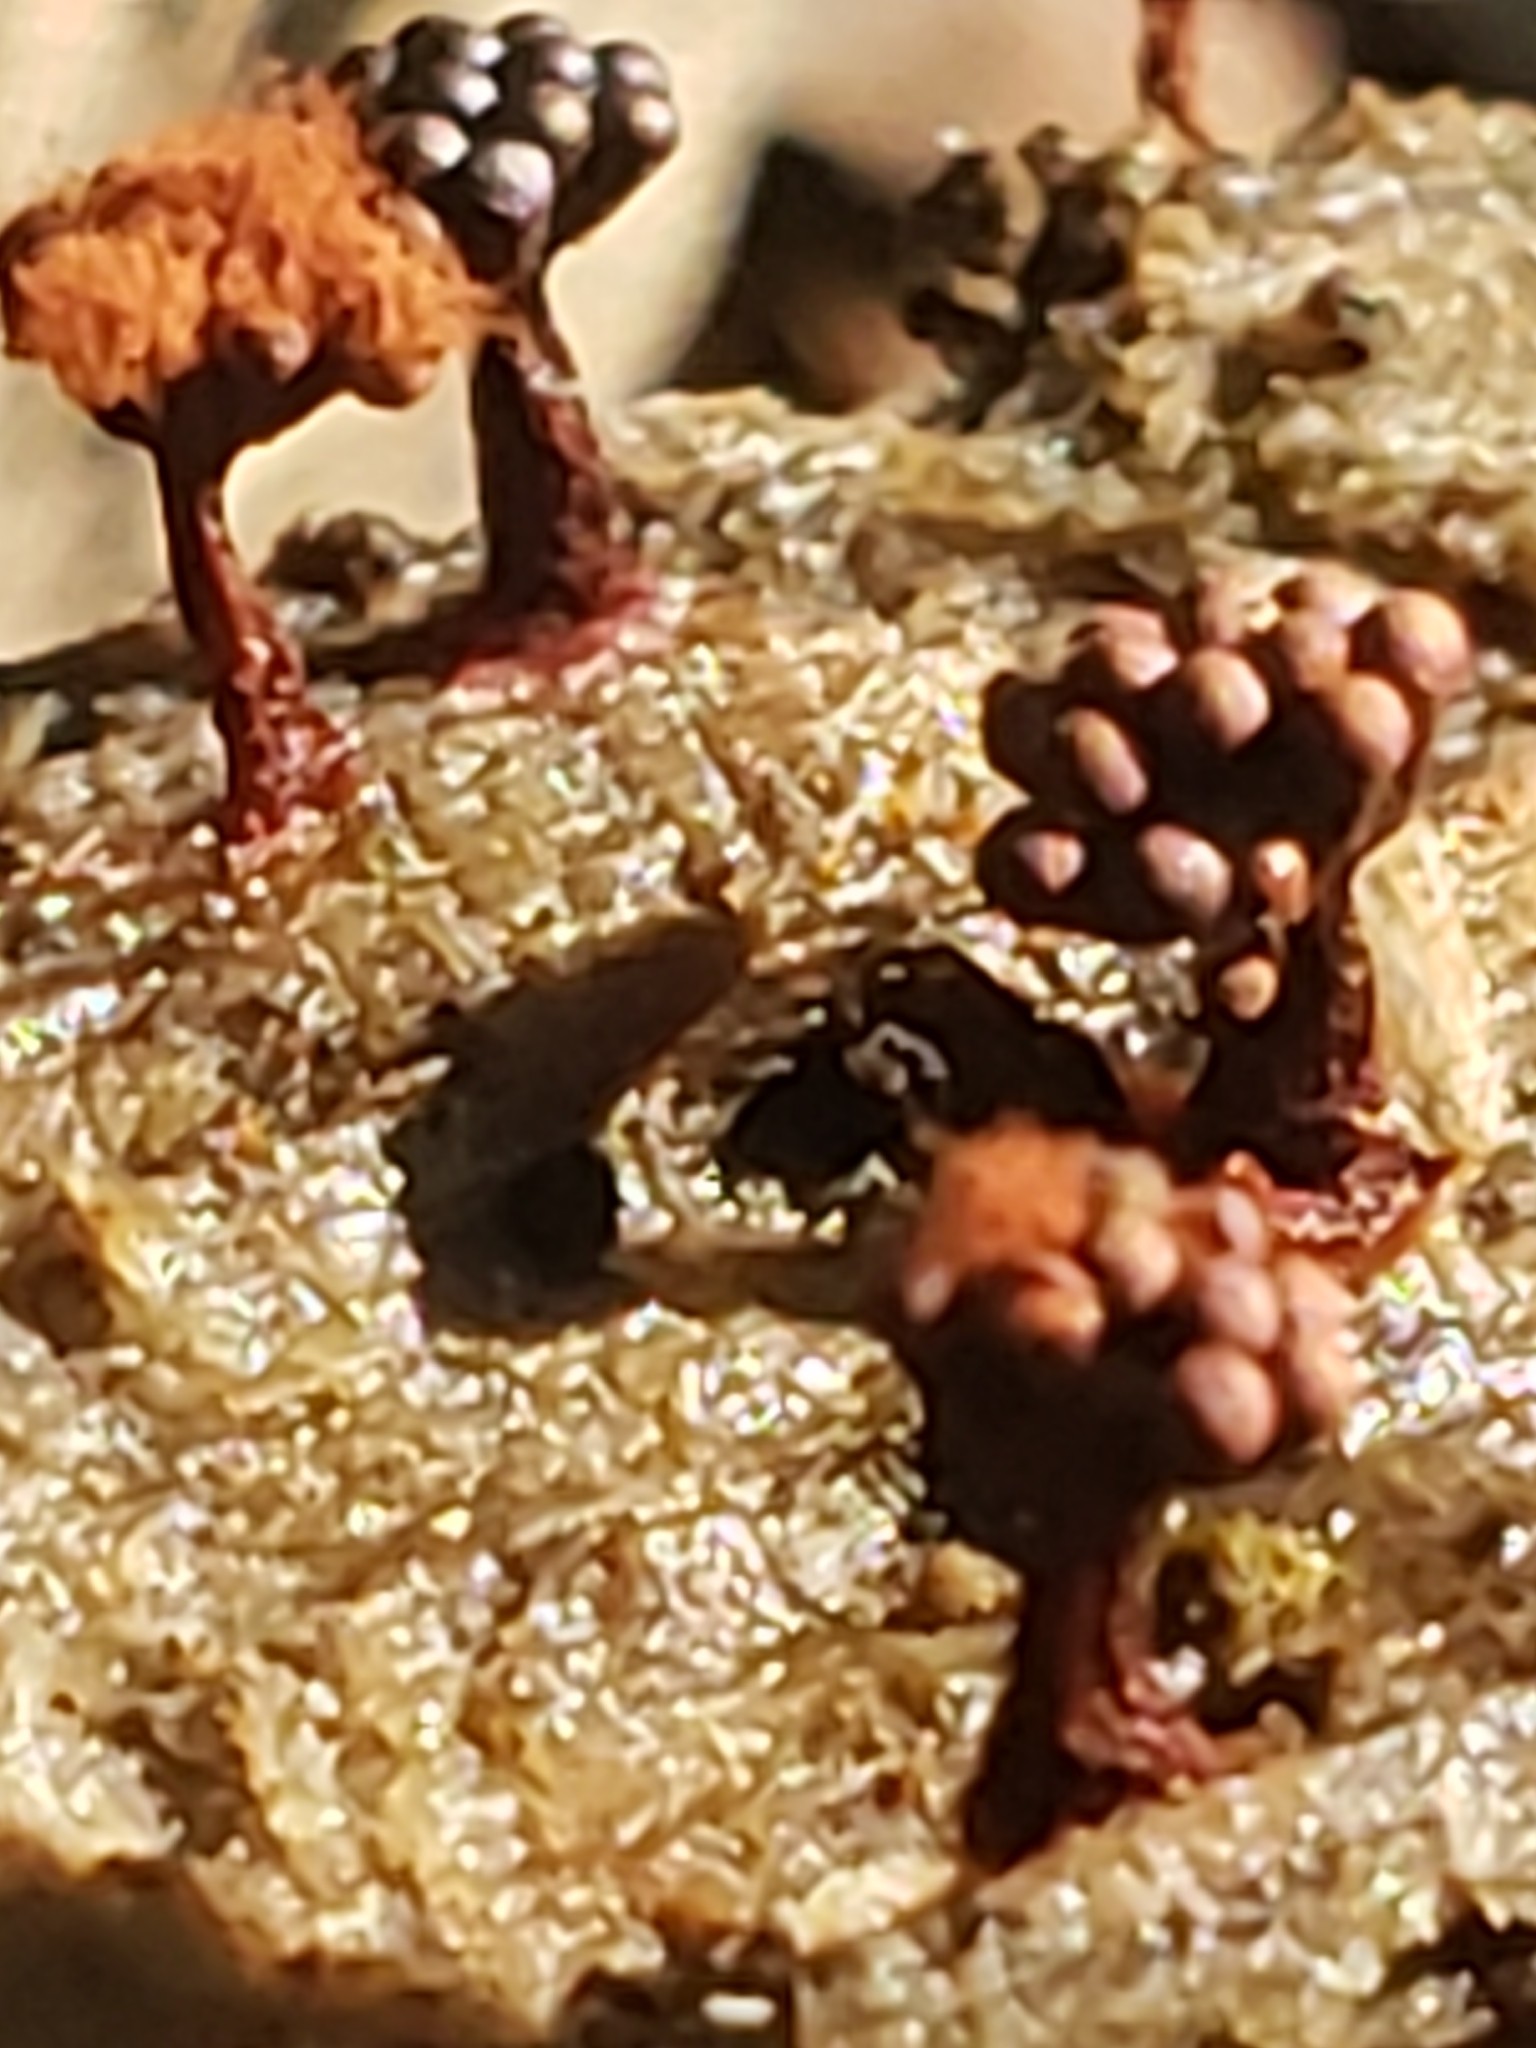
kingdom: Protozoa
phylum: Mycetozoa
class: Myxomycetes
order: Trichiales
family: Trichiaceae
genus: Metatrichia
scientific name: Metatrichia vesparia
